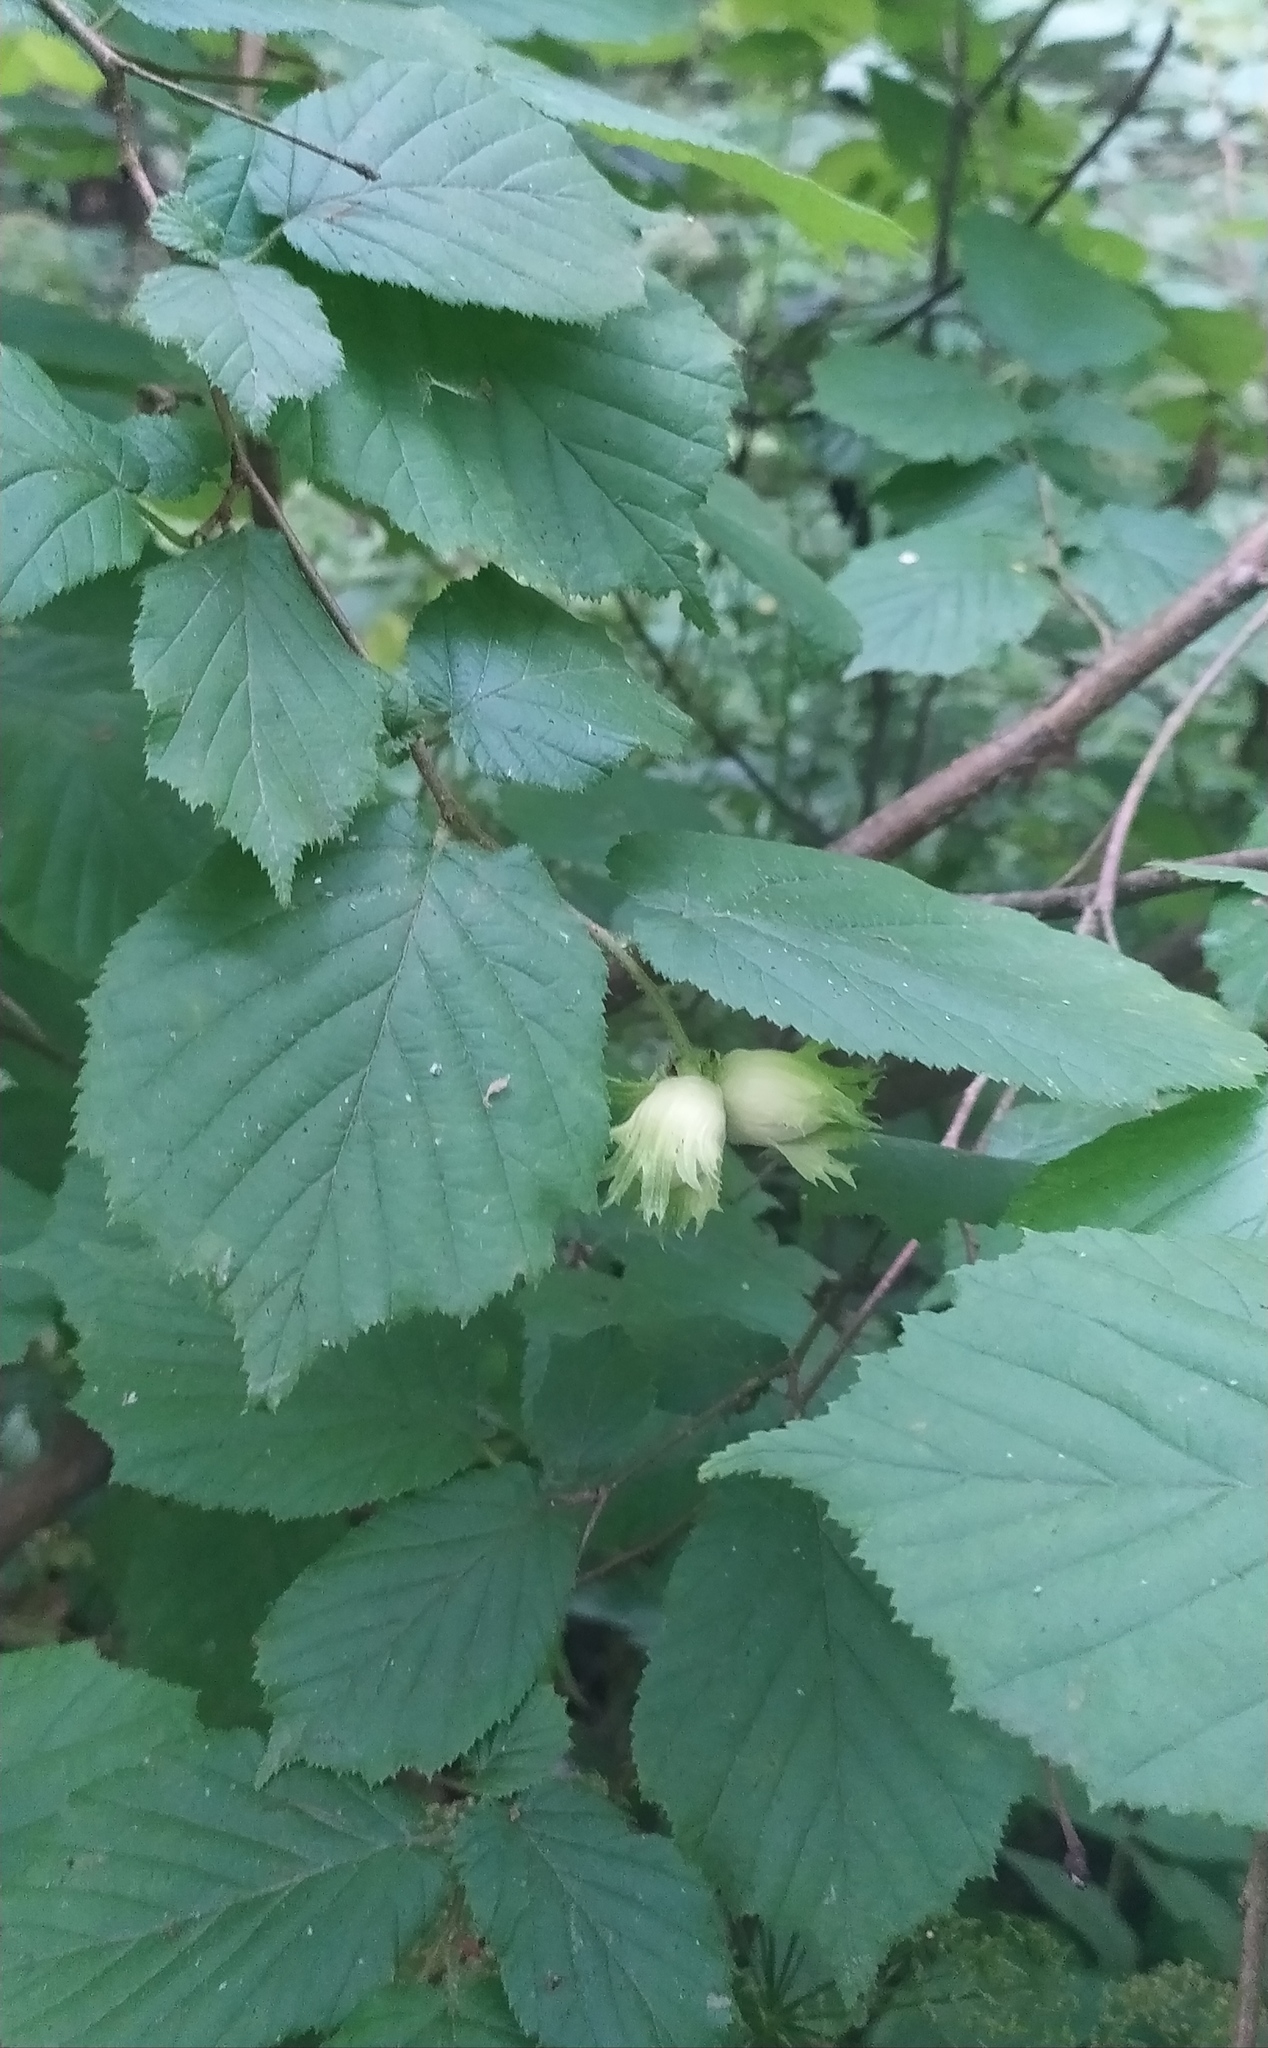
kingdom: Plantae
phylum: Tracheophyta
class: Magnoliopsida
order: Fagales
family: Betulaceae
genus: Corylus
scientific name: Corylus avellana
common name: European hazel
